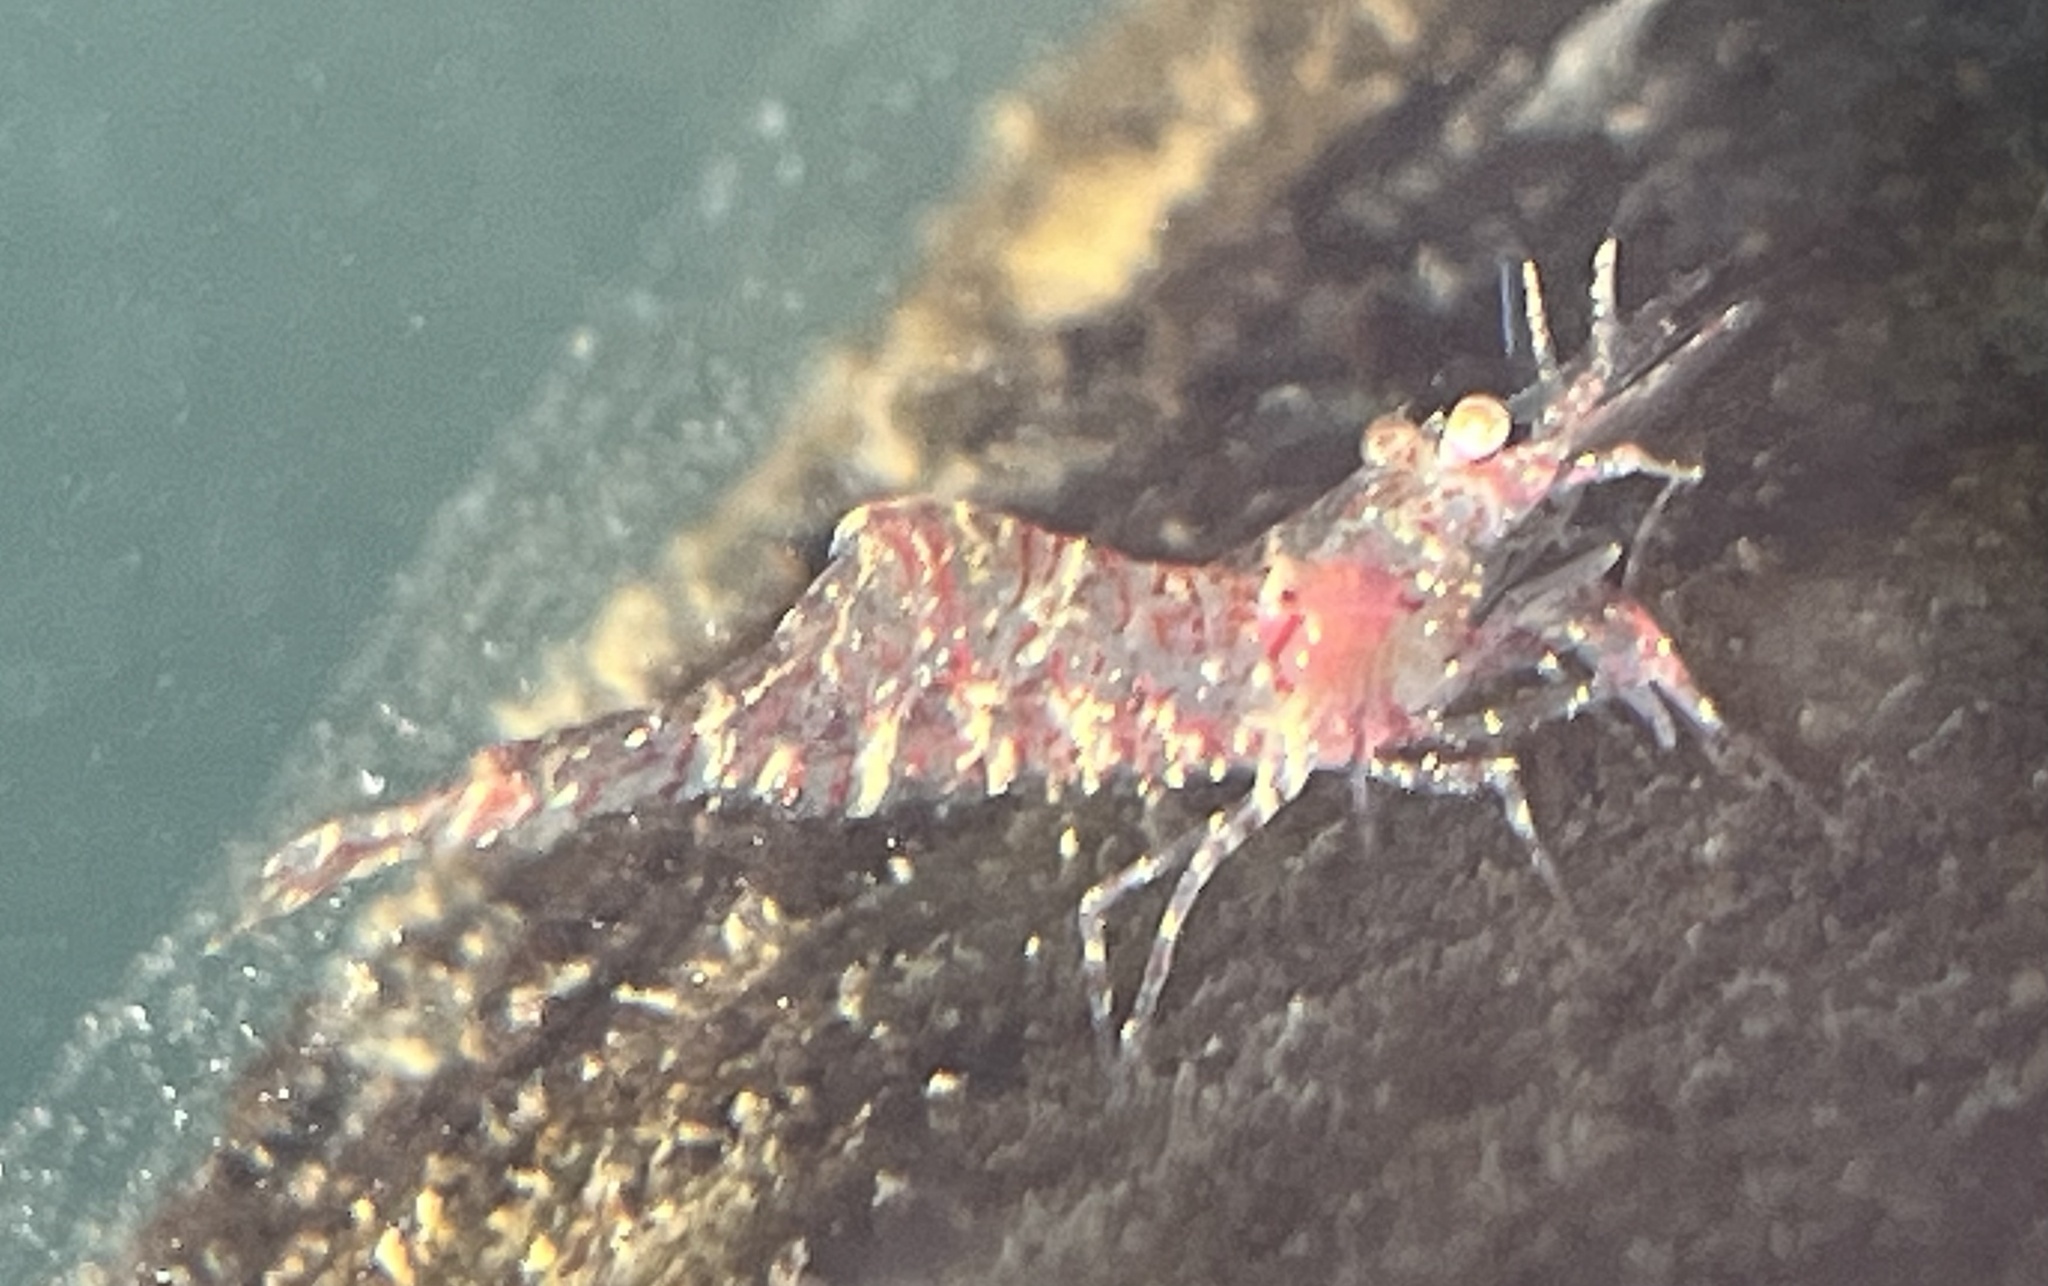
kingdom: Animalia
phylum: Arthropoda
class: Malacostraca
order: Decapoda
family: Thoridae
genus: Heptacarpus
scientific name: Heptacarpus tridens
